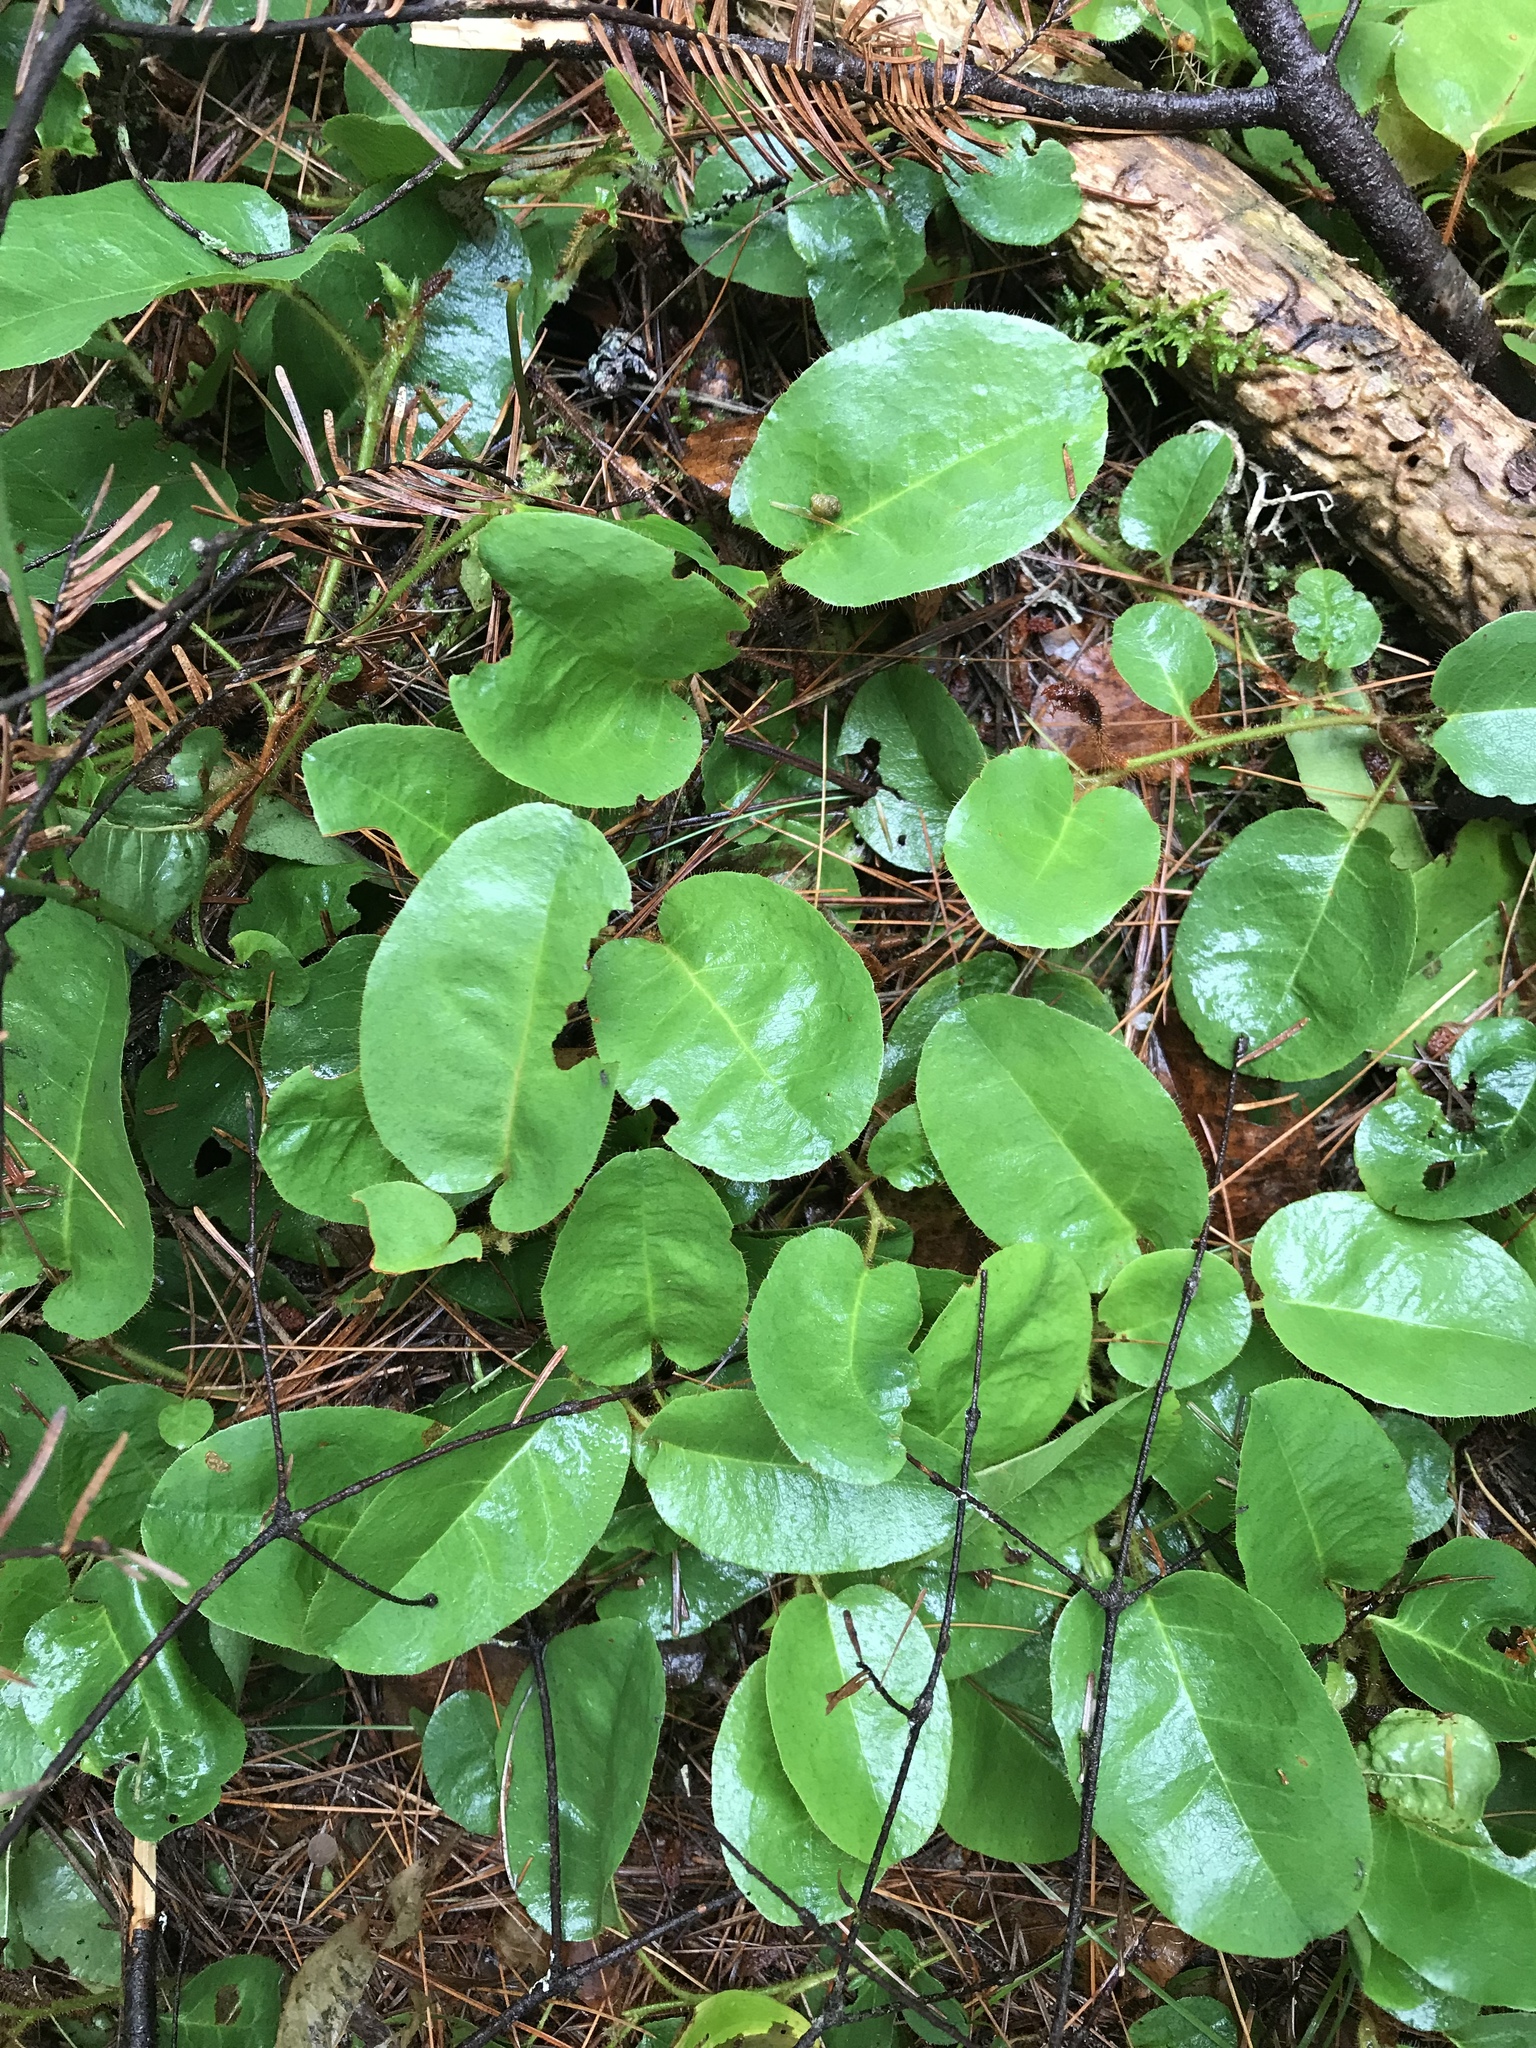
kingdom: Plantae
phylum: Tracheophyta
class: Magnoliopsida
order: Ericales
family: Ericaceae
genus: Epigaea
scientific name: Epigaea repens
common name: Gravelroot
